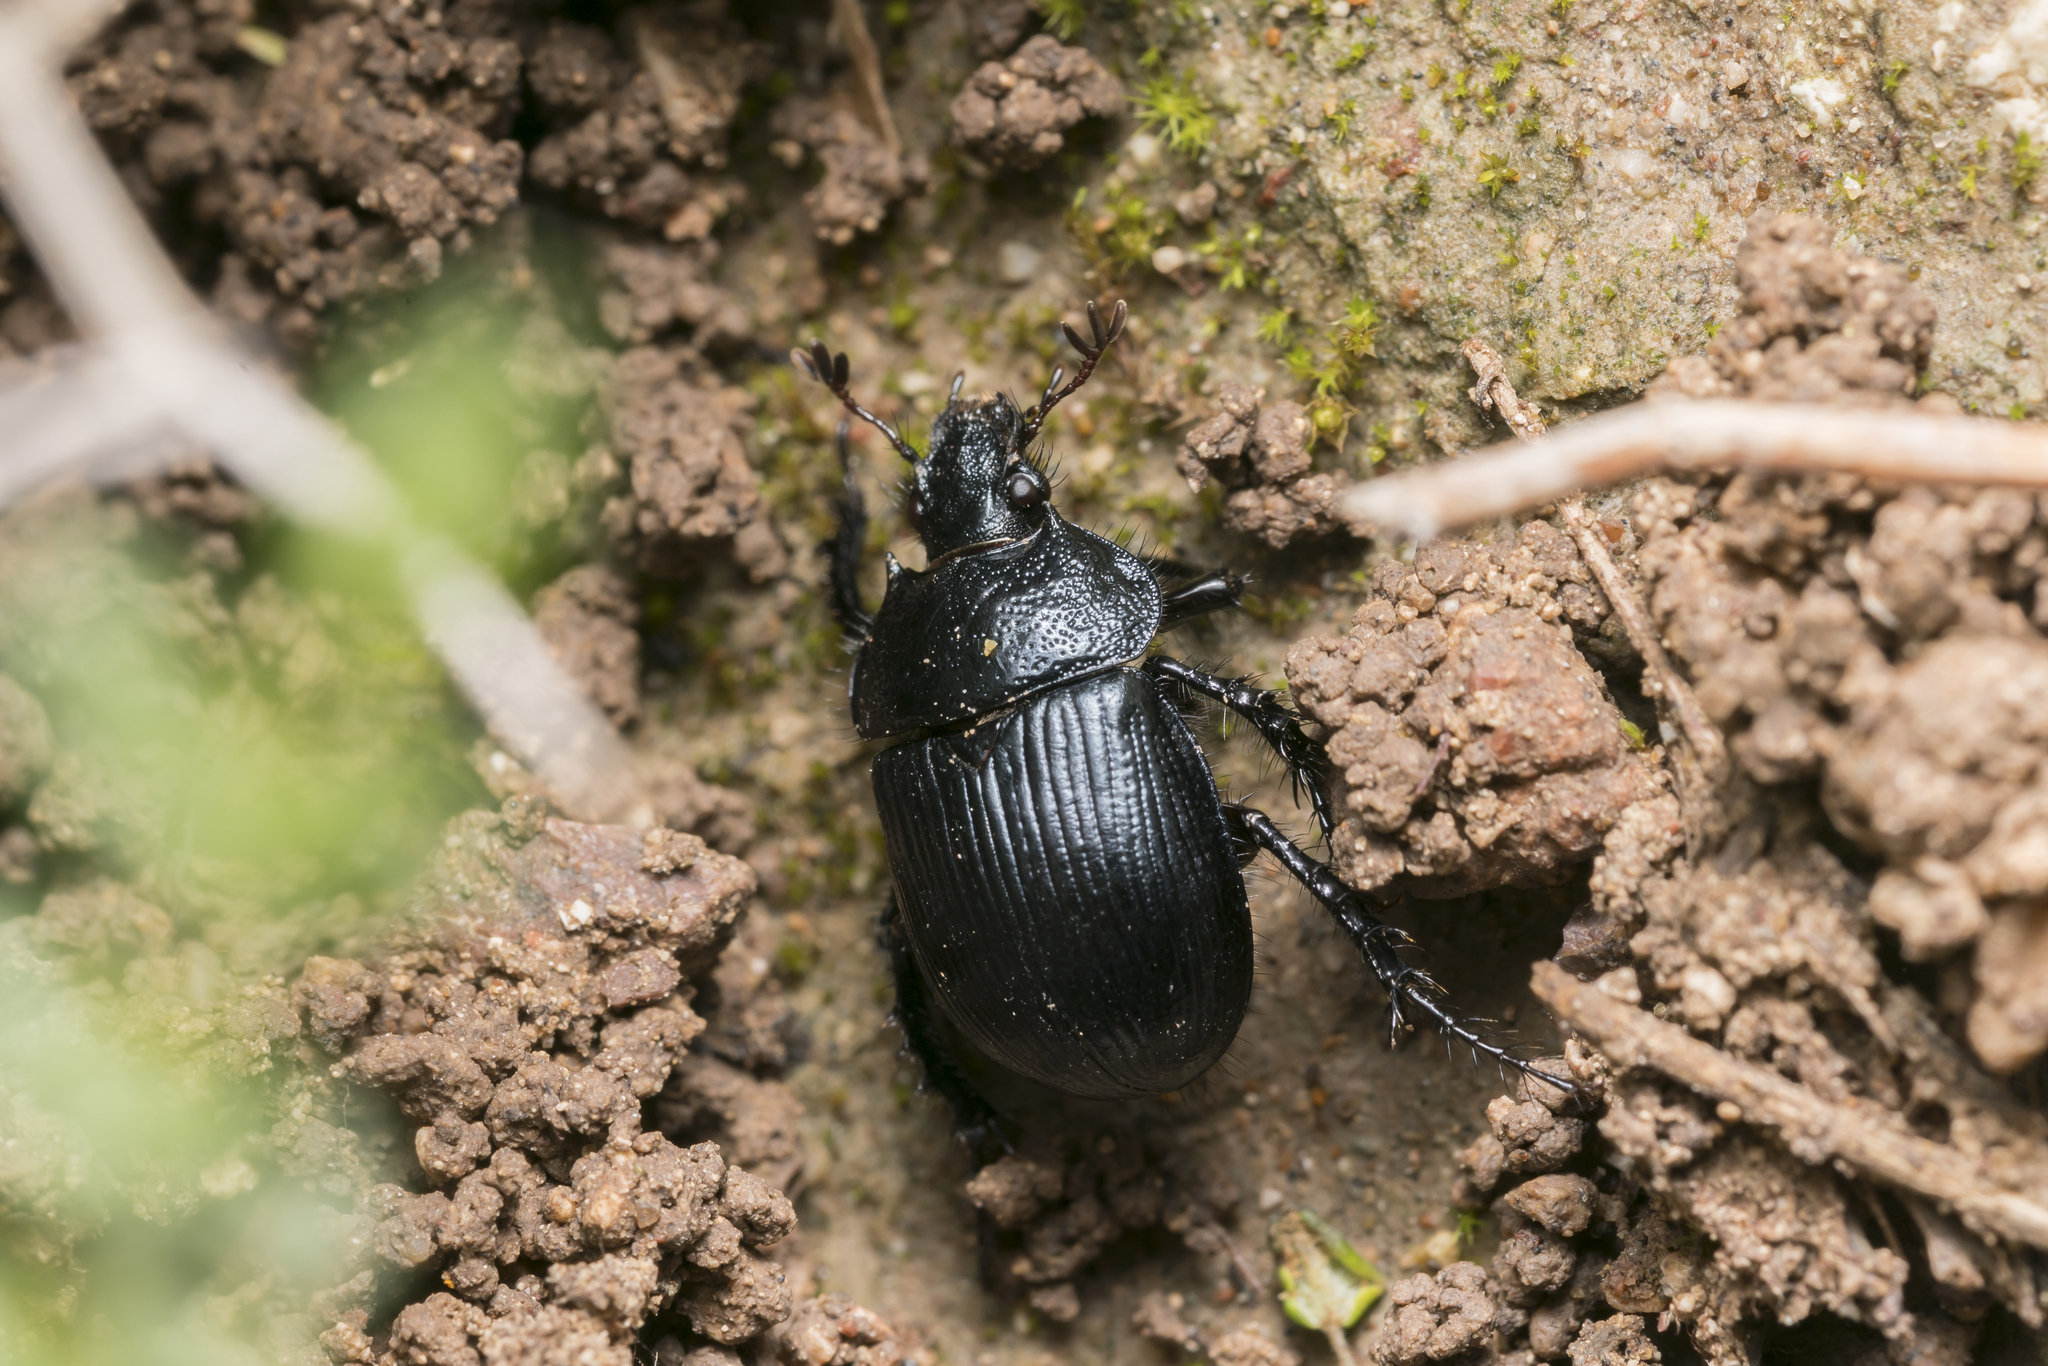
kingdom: Animalia
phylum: Arthropoda
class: Insecta
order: Coleoptera
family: Geotrupidae
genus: Typhaeus
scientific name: Typhaeus fossor
